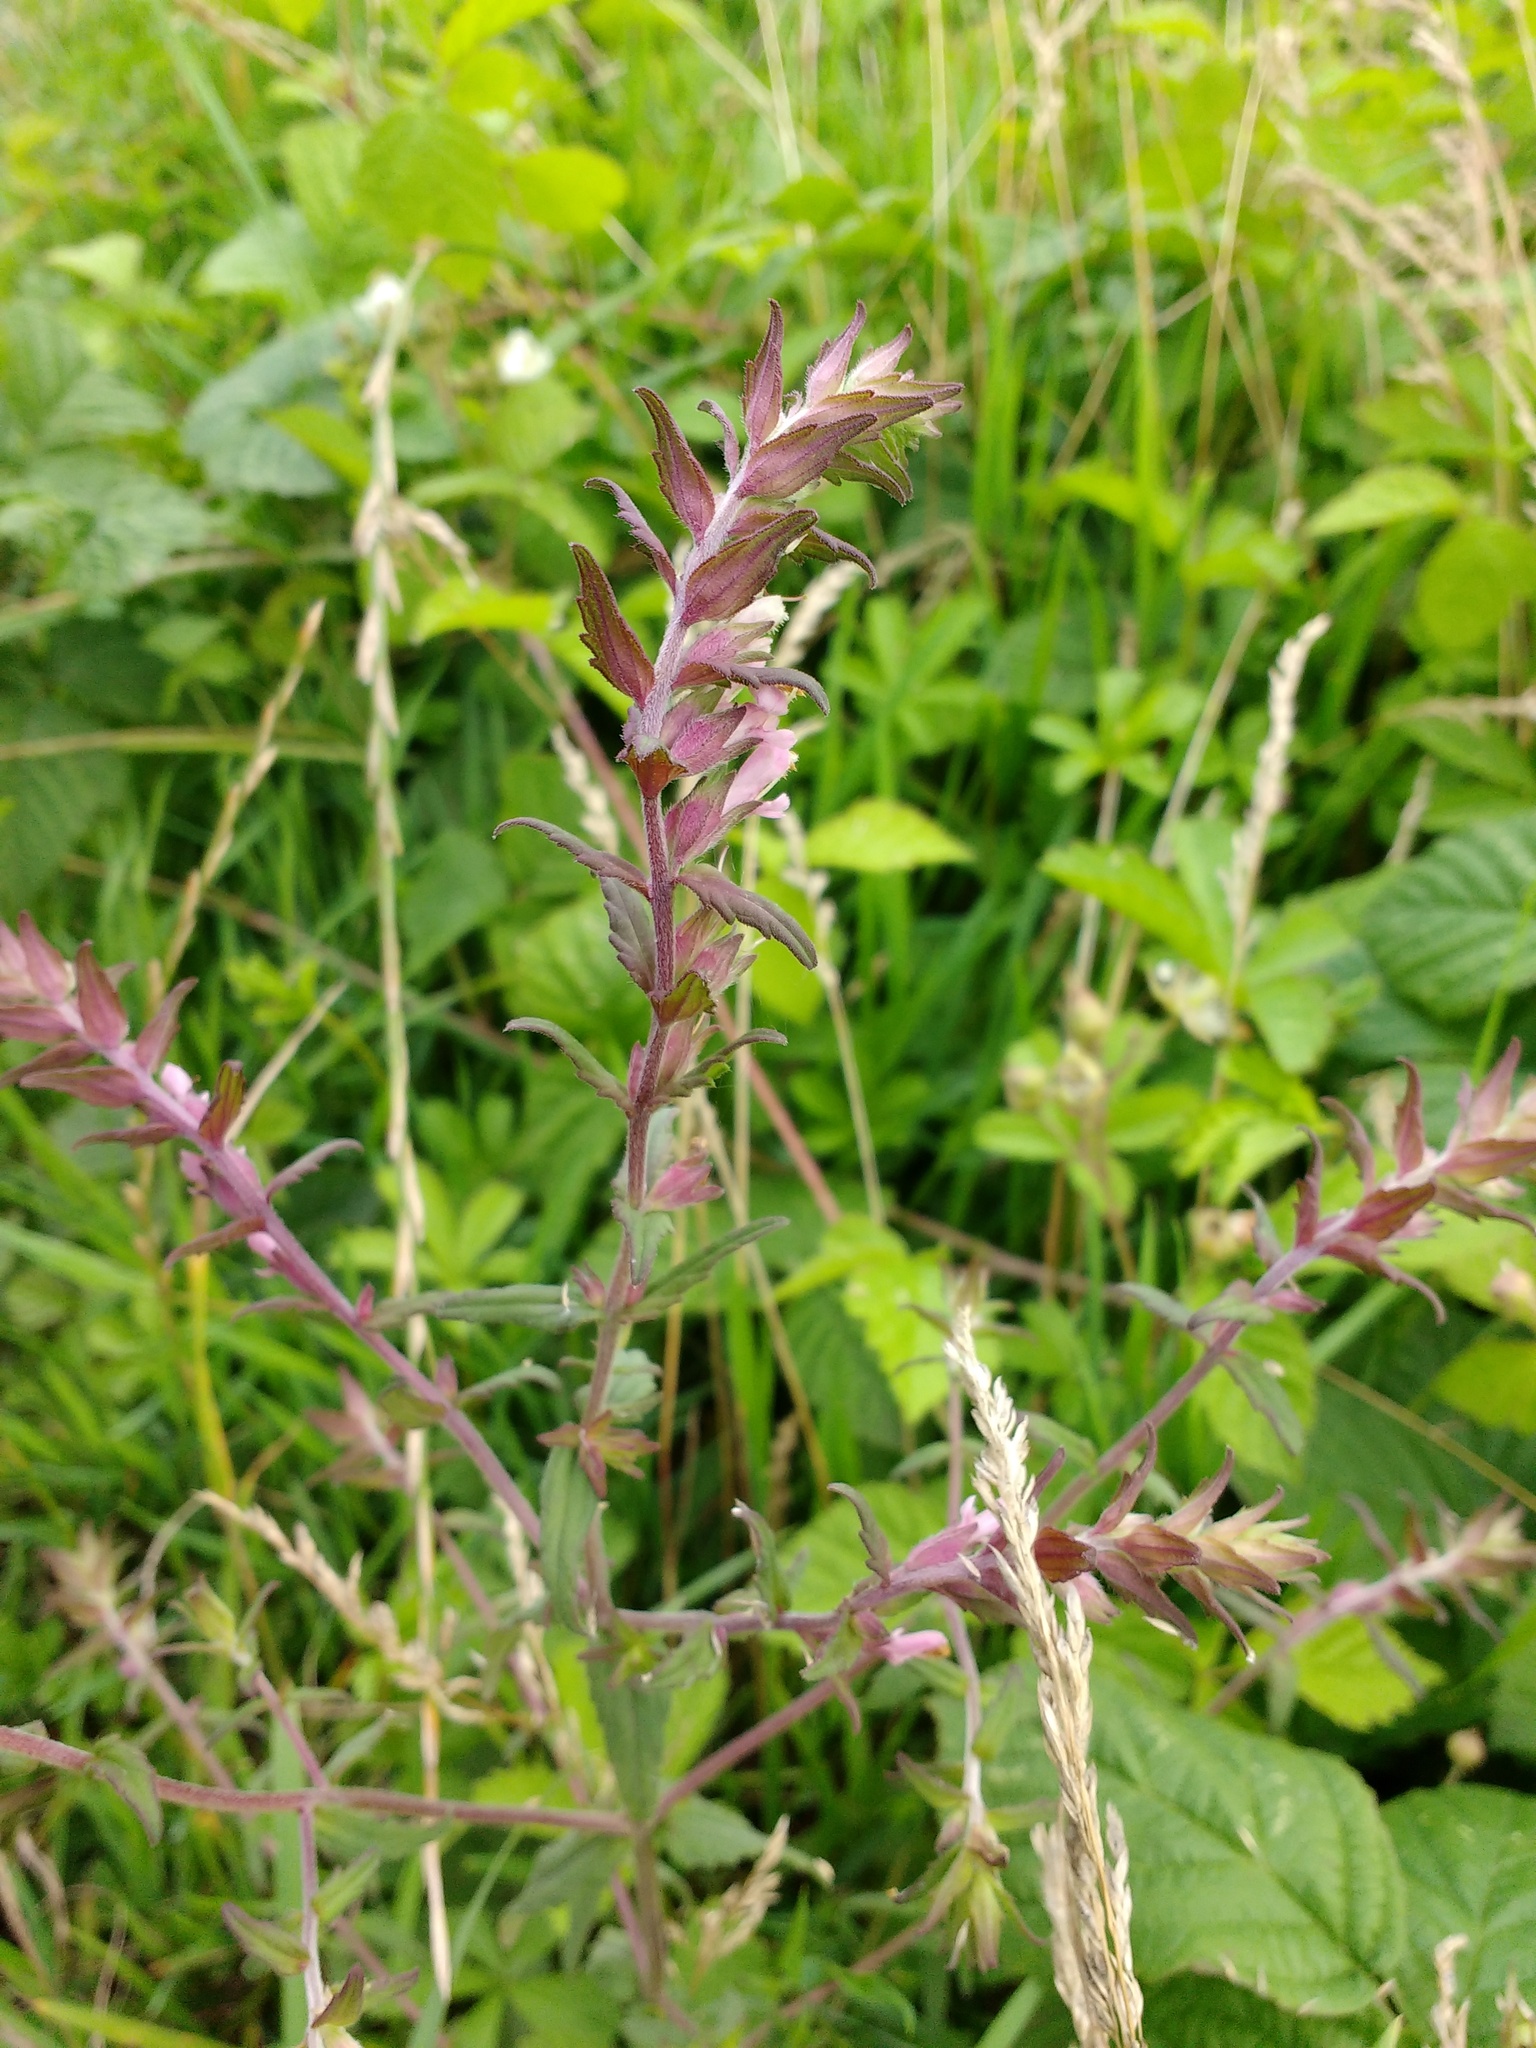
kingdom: Plantae
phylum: Tracheophyta
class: Magnoliopsida
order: Lamiales
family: Orobanchaceae
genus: Odontites
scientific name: Odontites vulgaris
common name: Broomrape
